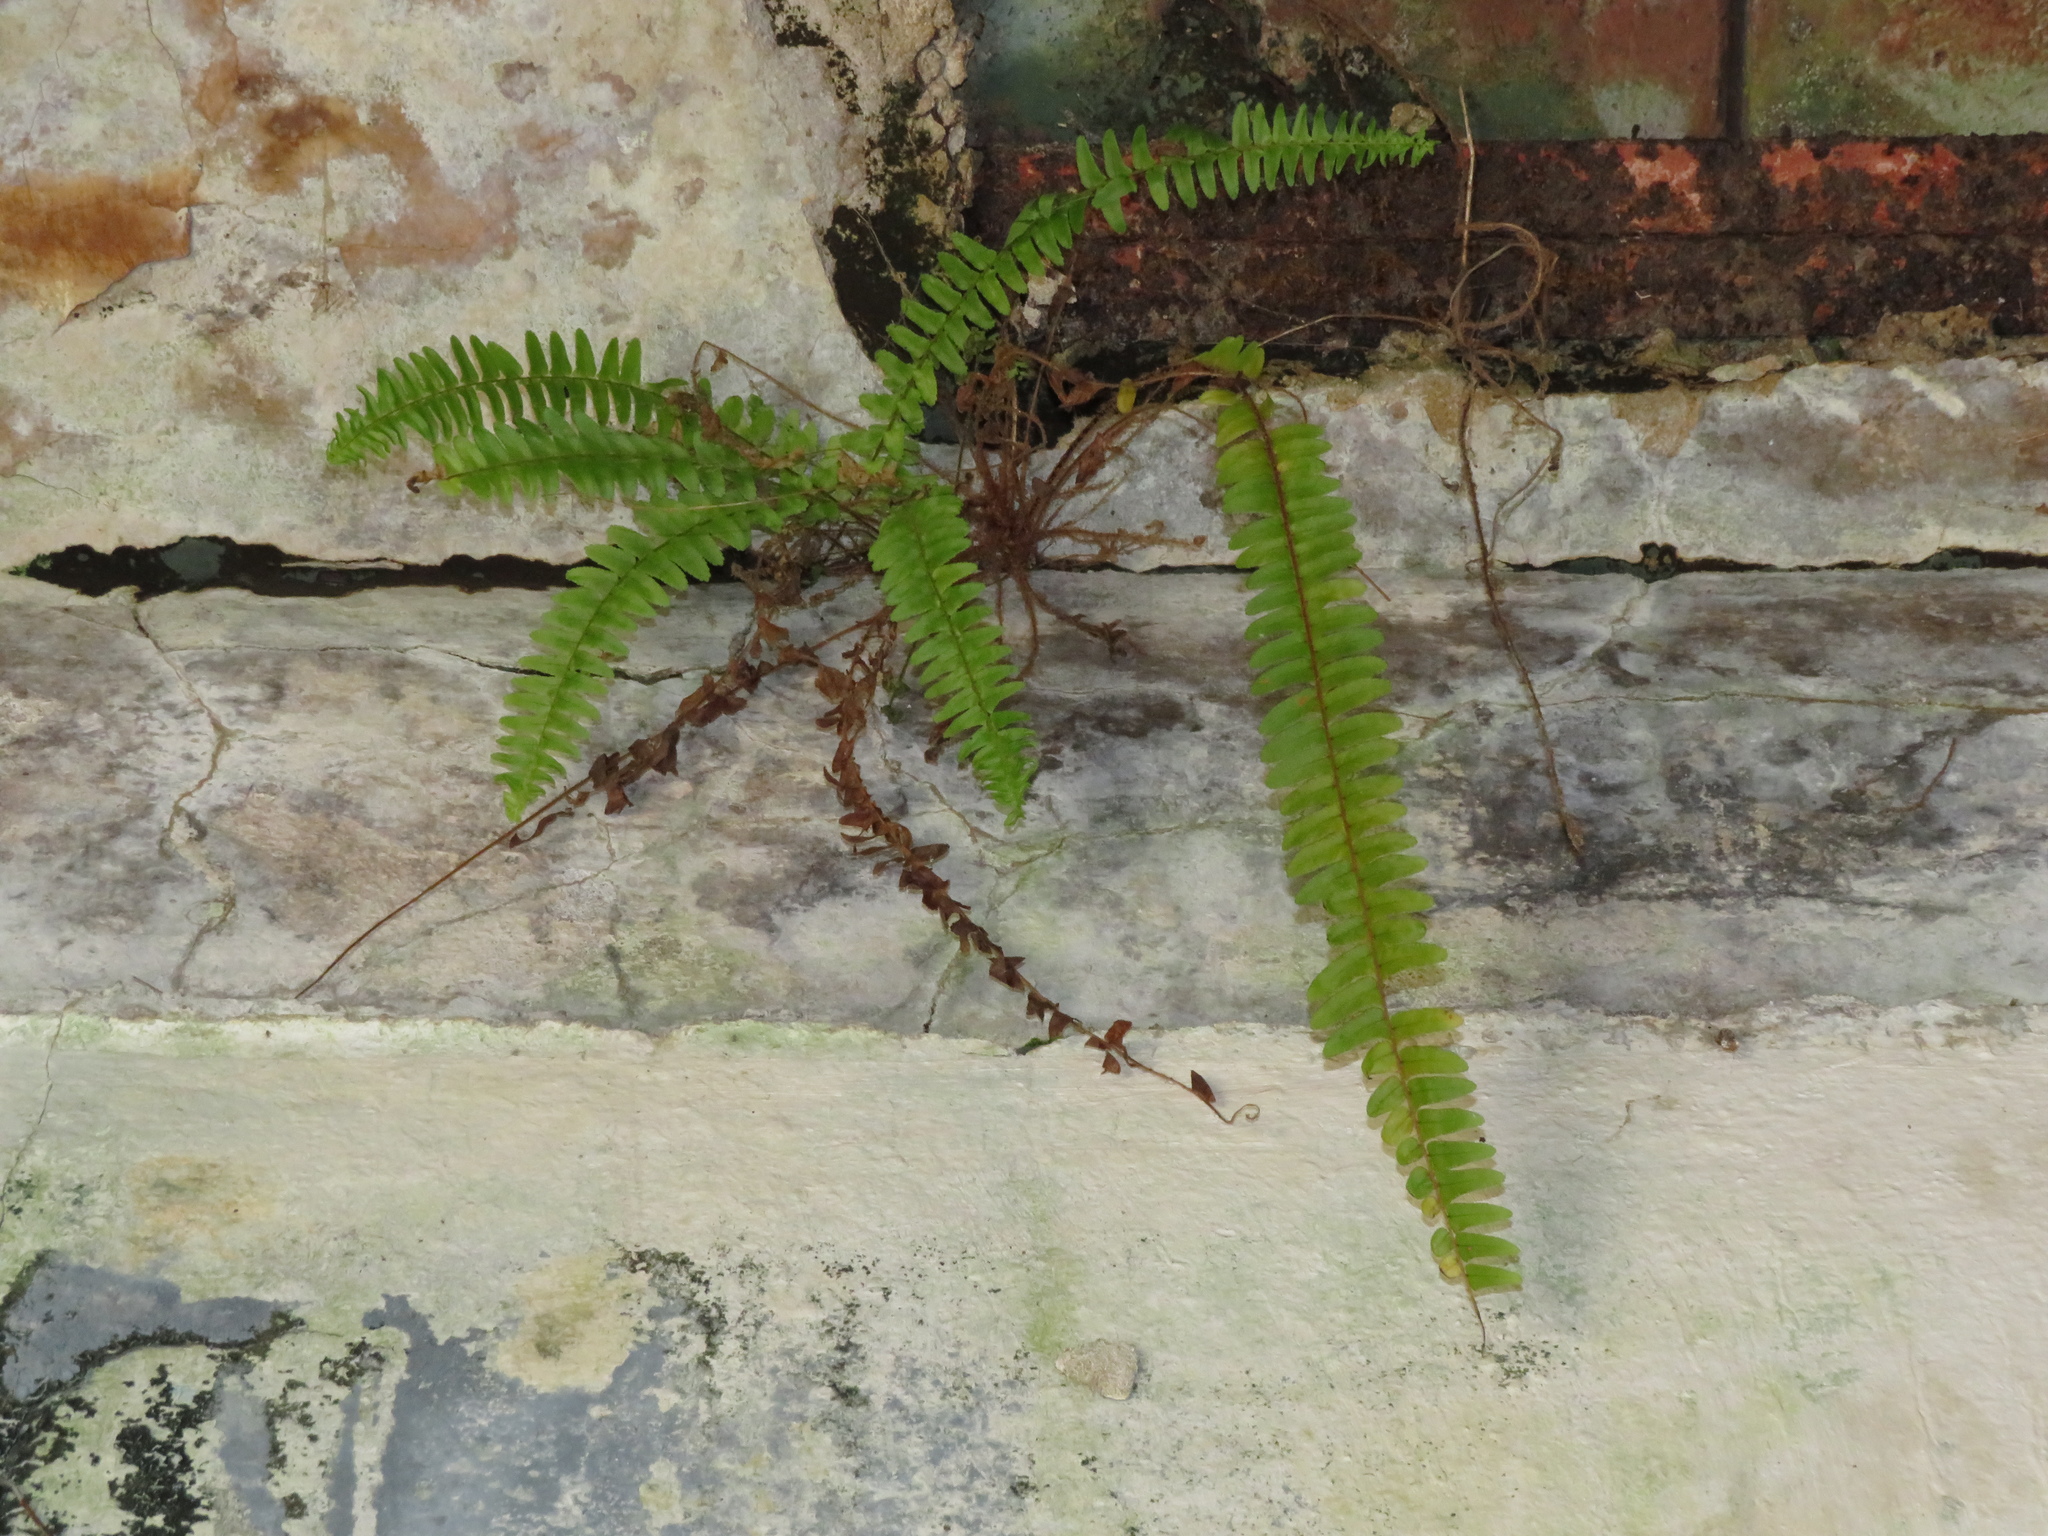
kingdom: Plantae
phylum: Tracheophyta
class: Polypodiopsida
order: Polypodiales
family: Nephrolepidaceae
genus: Nephrolepis
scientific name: Nephrolepis cordifolia
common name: Narrow swordfern
